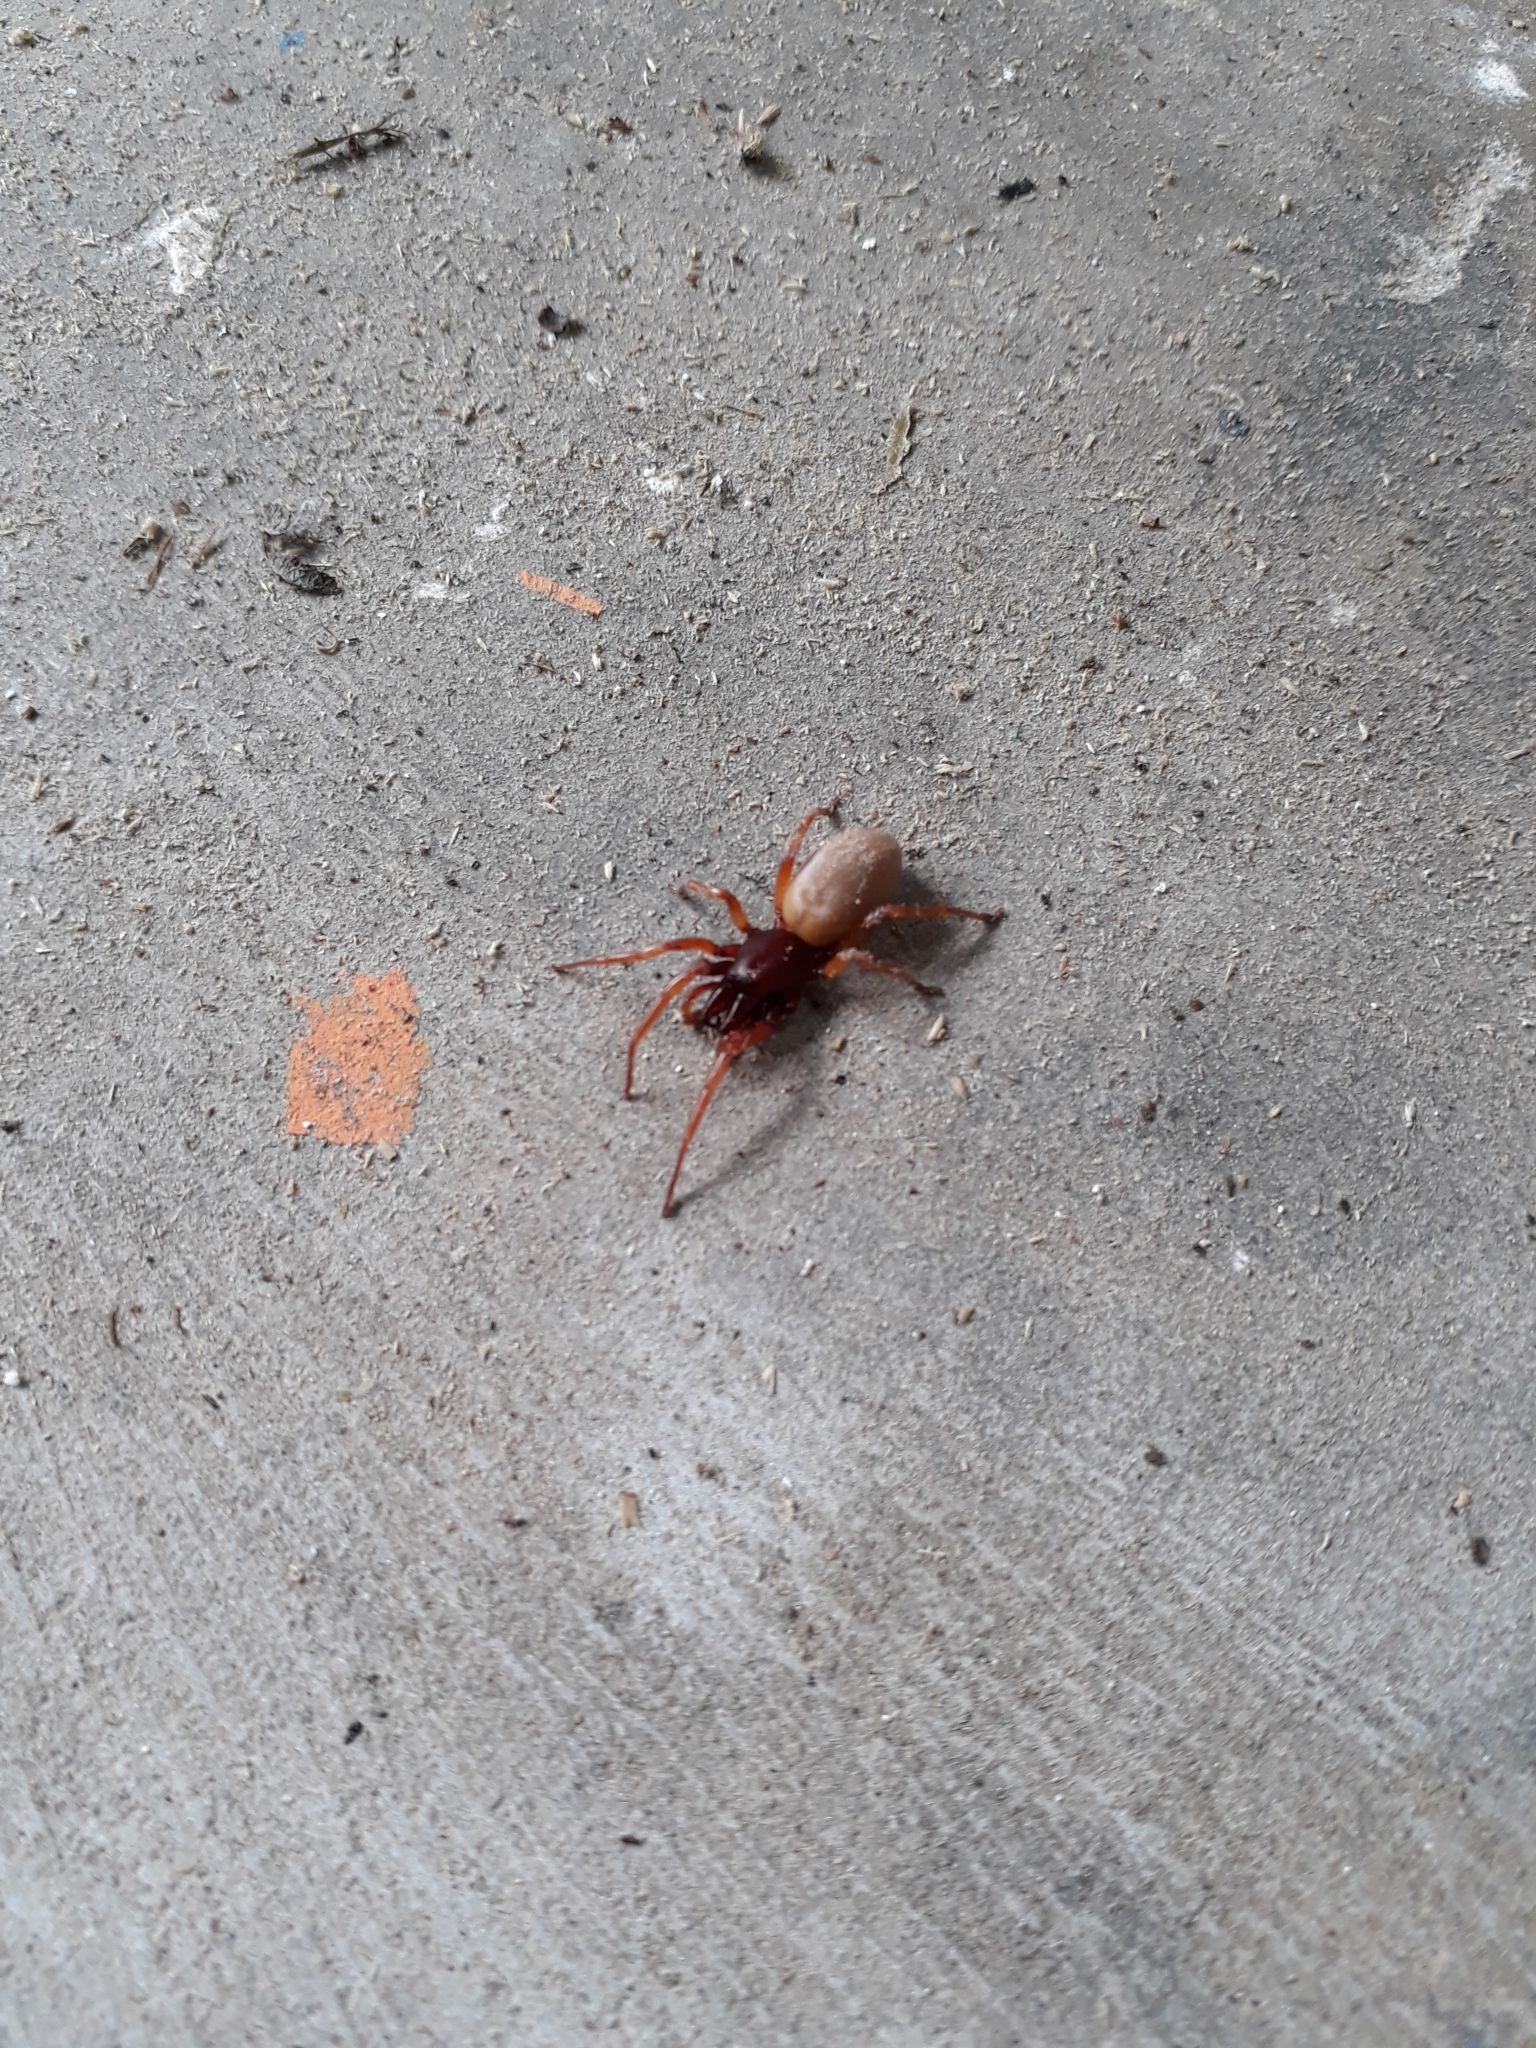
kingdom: Animalia
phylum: Arthropoda
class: Arachnida
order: Araneae
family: Dysderidae
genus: Dysdera
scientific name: Dysdera crocata
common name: Woodlouse spider
